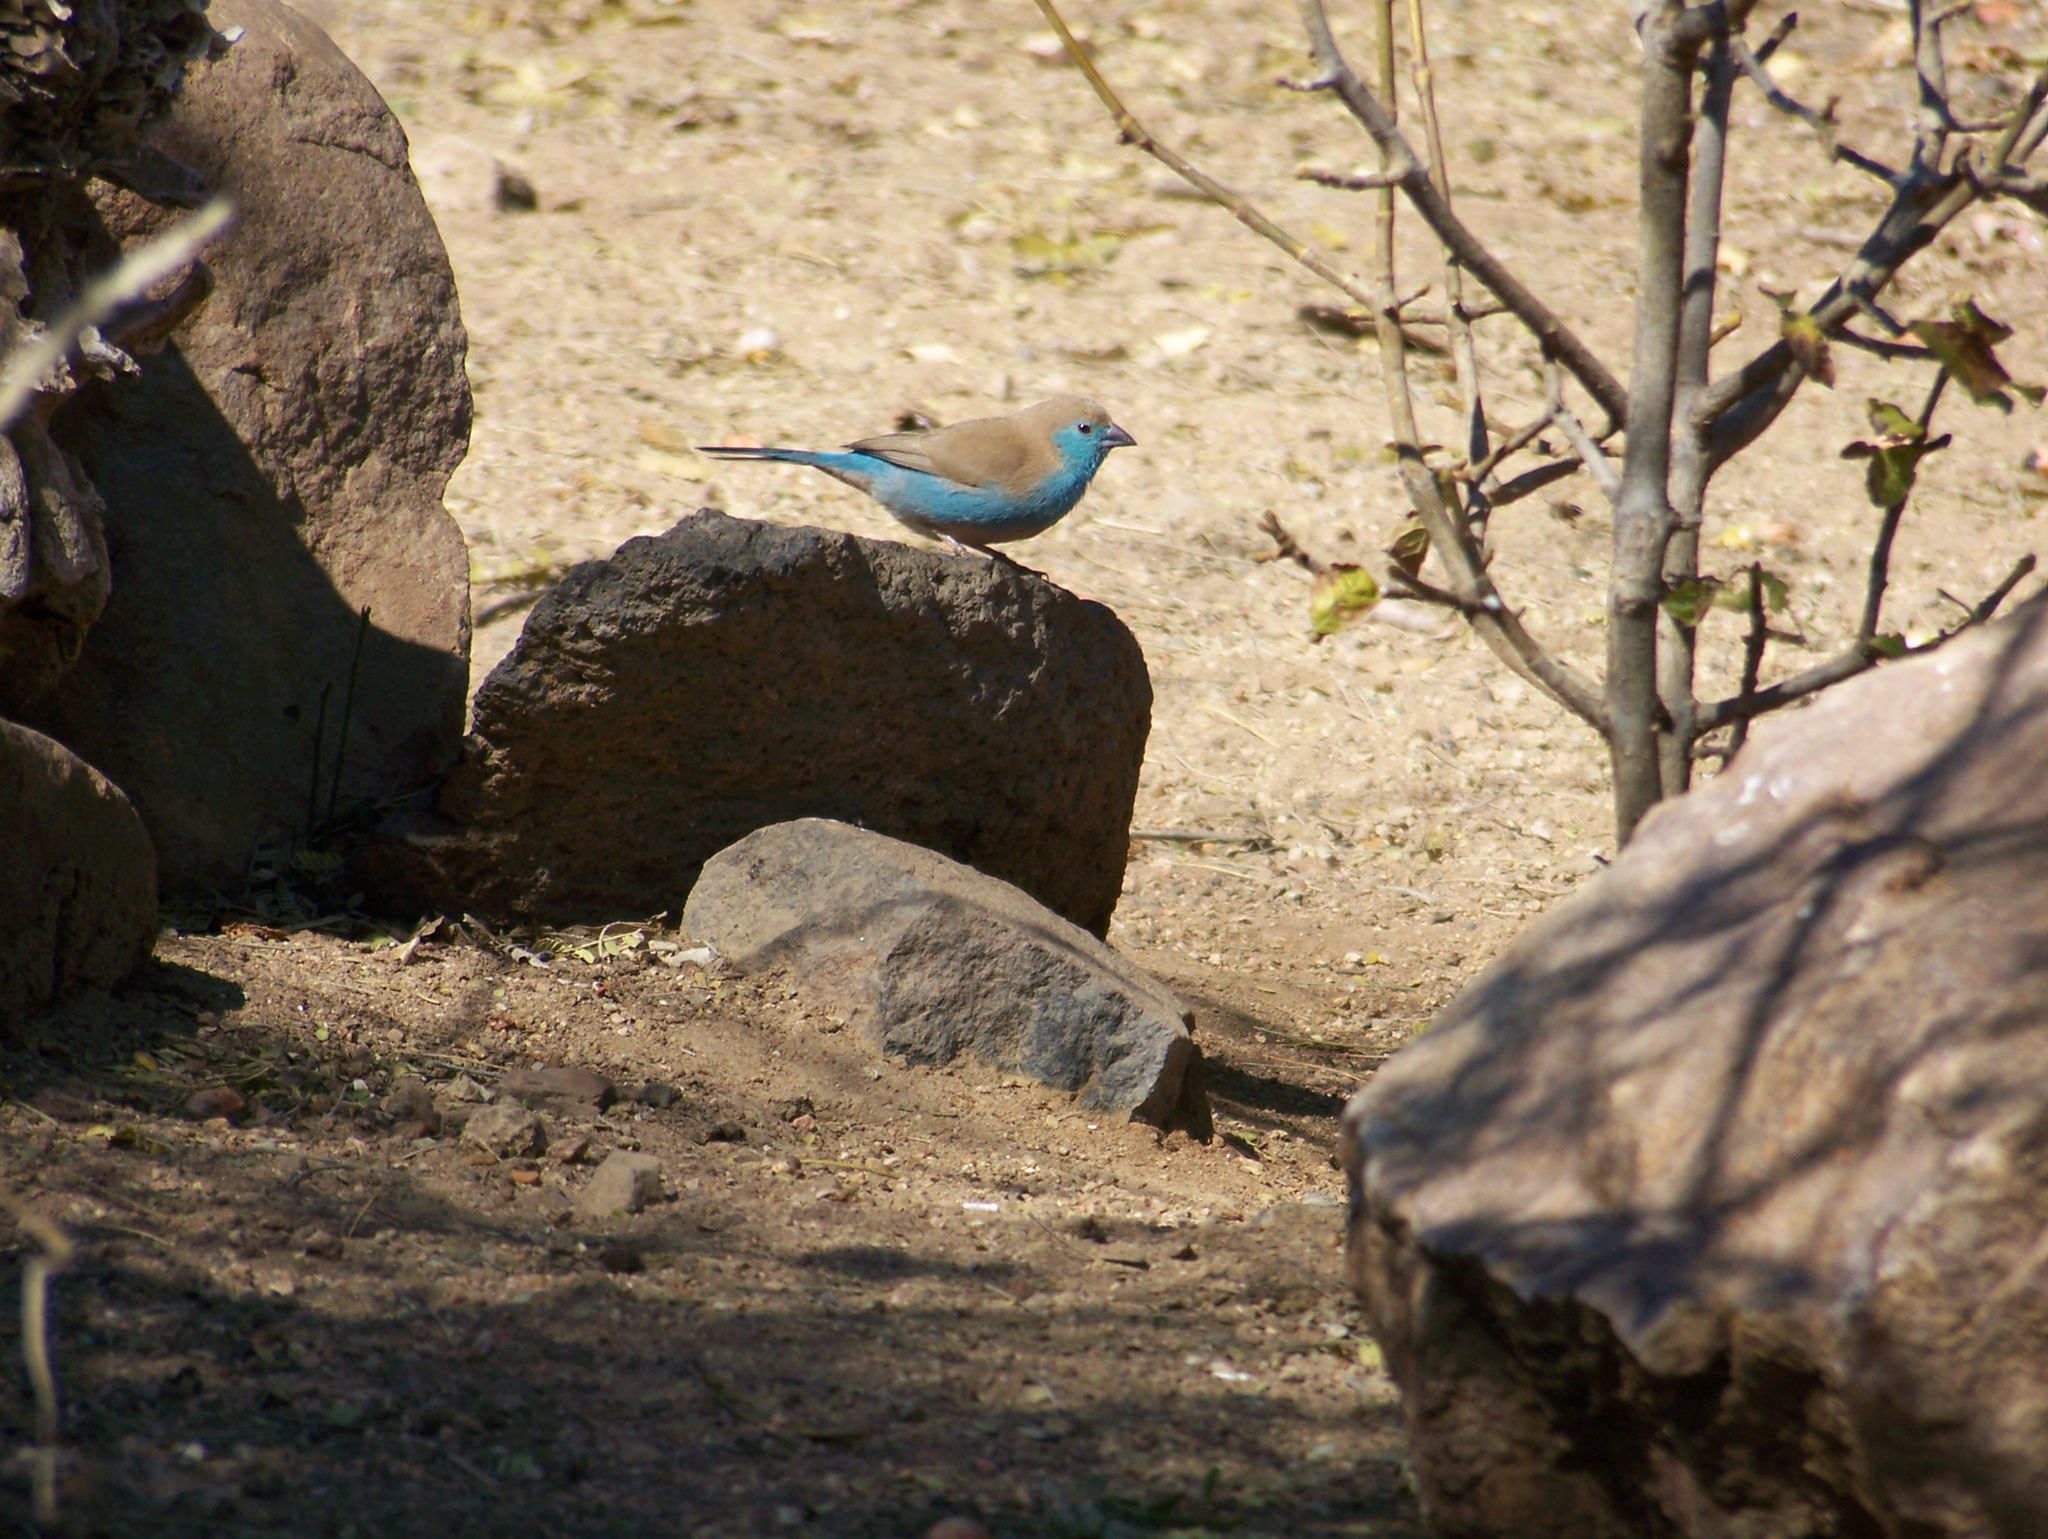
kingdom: Animalia
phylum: Chordata
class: Aves
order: Passeriformes
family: Estrildidae
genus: Uraeginthus
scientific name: Uraeginthus angolensis
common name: Blue waxbill
